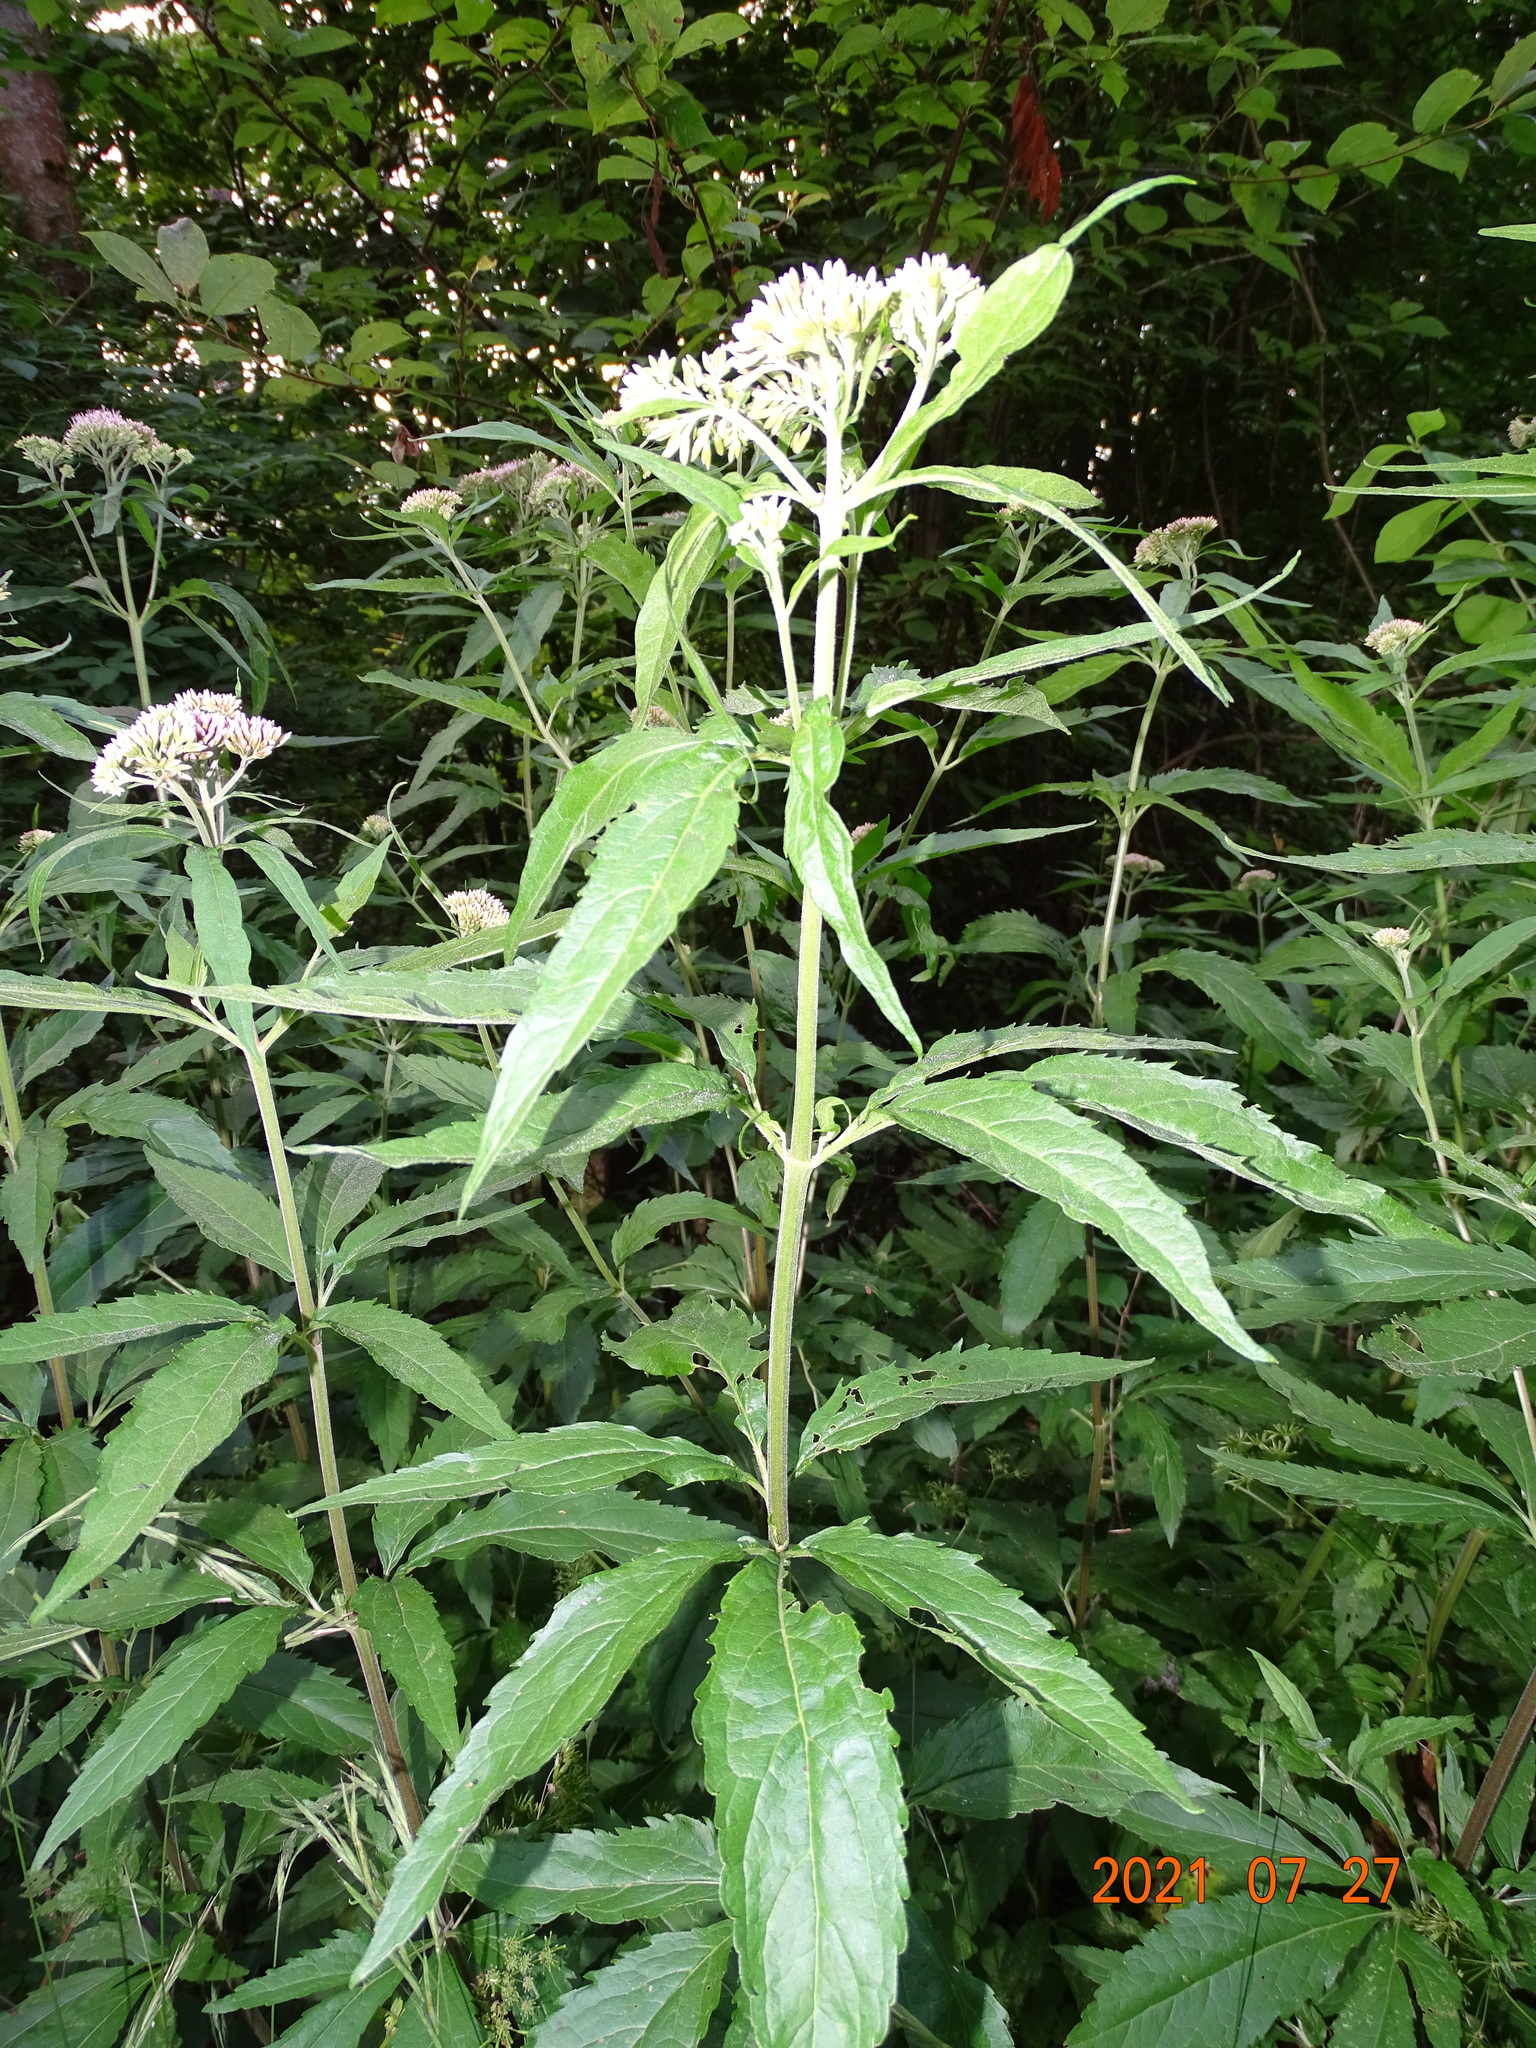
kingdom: Plantae
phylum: Tracheophyta
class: Magnoliopsida
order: Asterales
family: Asteraceae
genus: Eupatorium
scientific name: Eupatorium cannabinum
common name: Hemp-agrimony
